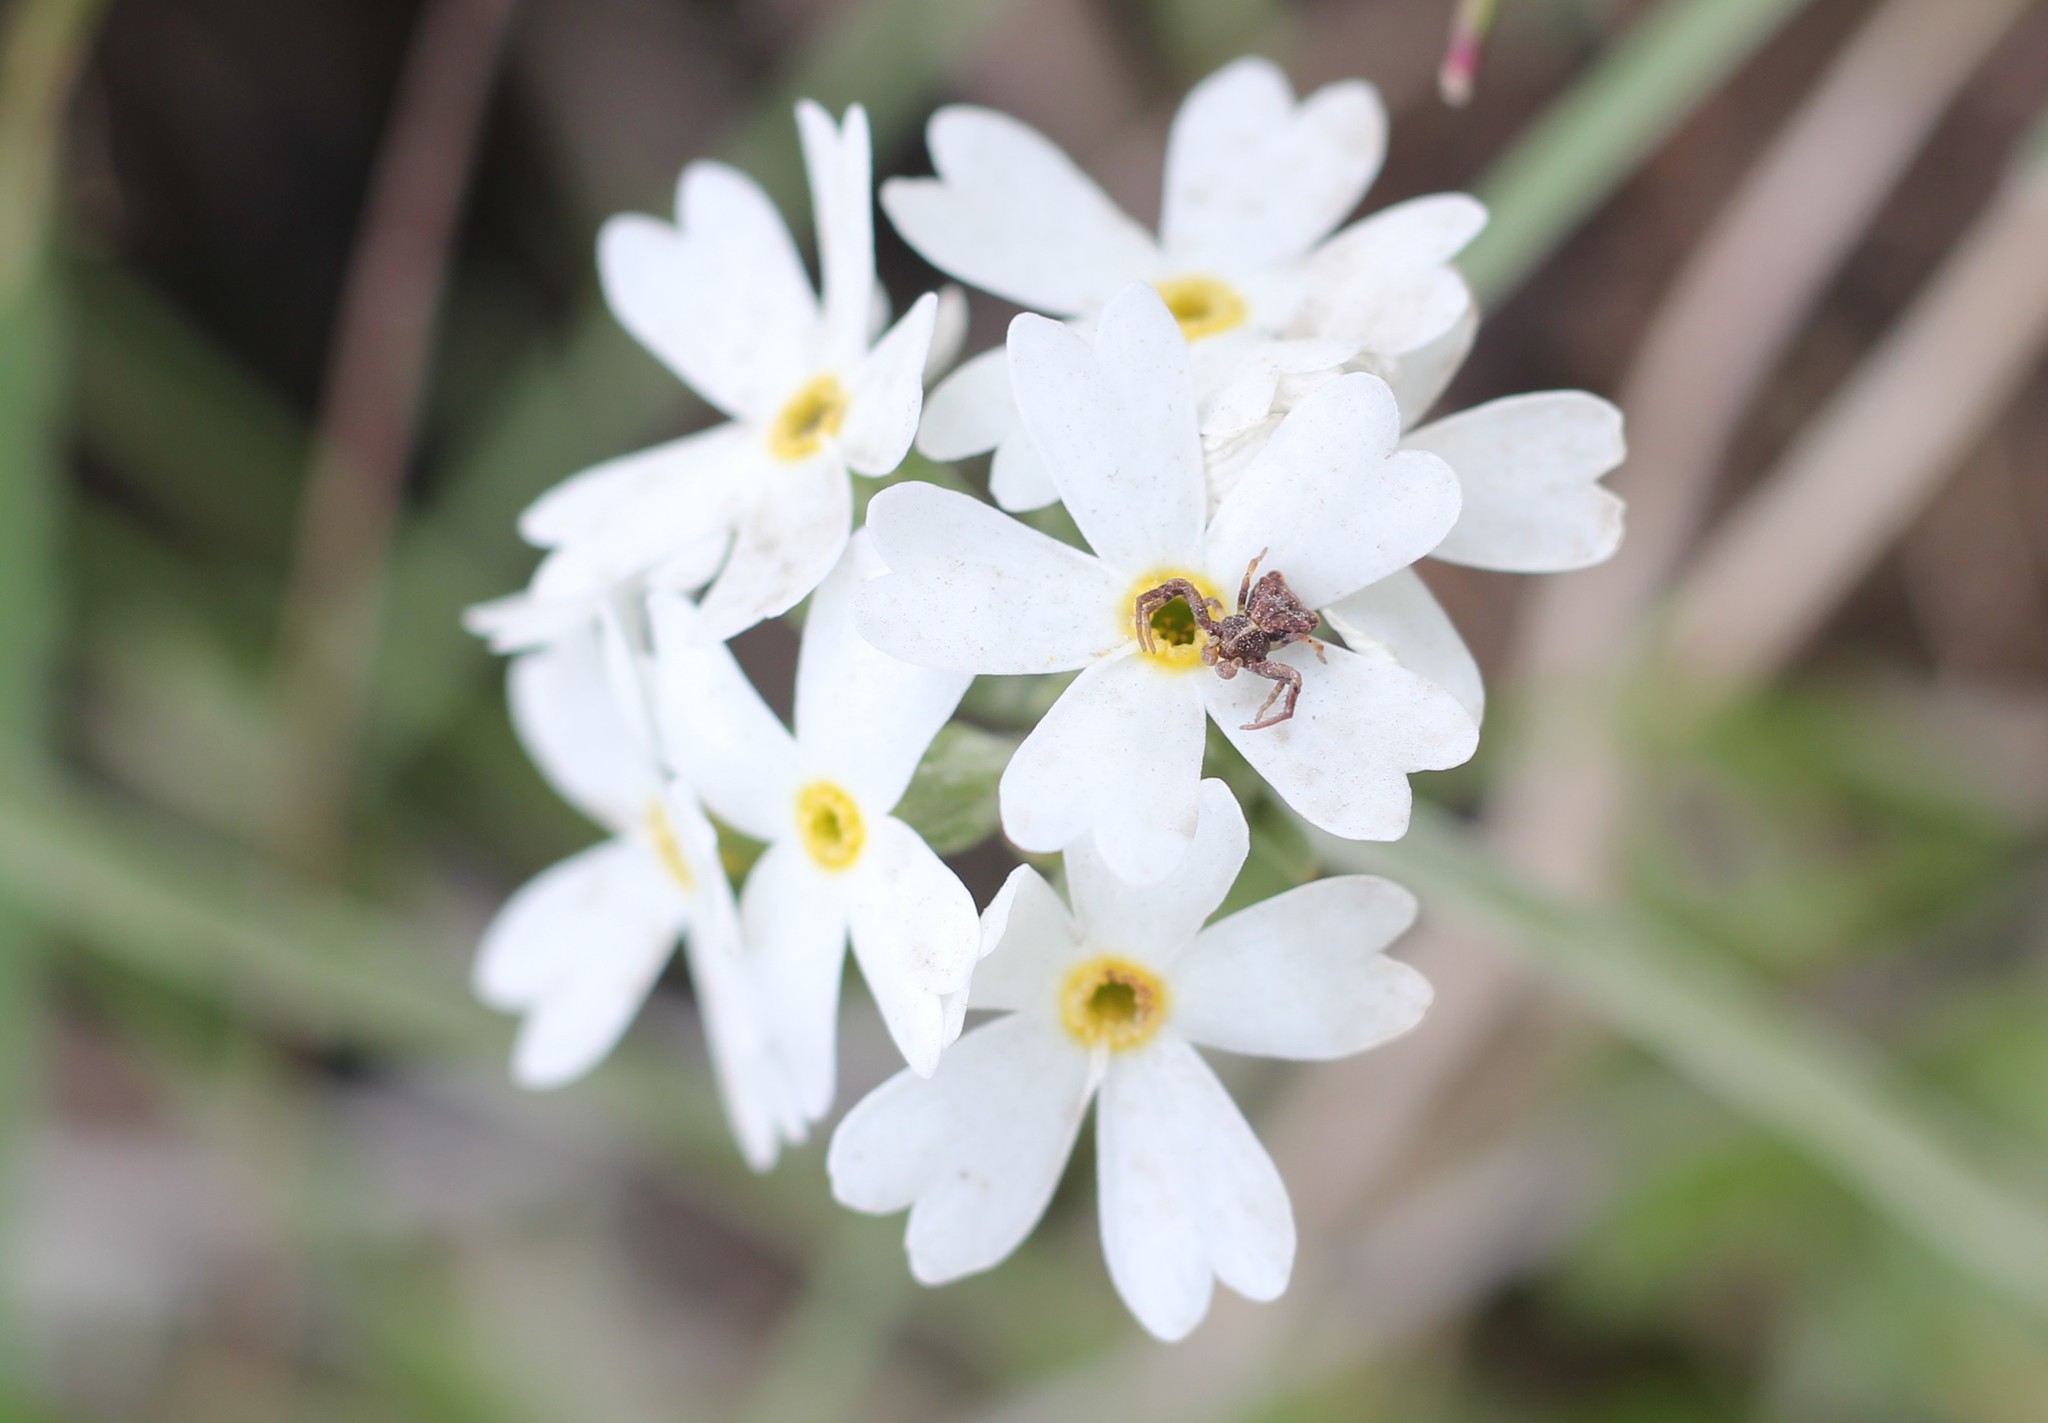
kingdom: Animalia
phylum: Arthropoda
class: Arachnida
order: Araneae
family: Thomisidae
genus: Coenypha
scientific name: Coenypha ditissima
